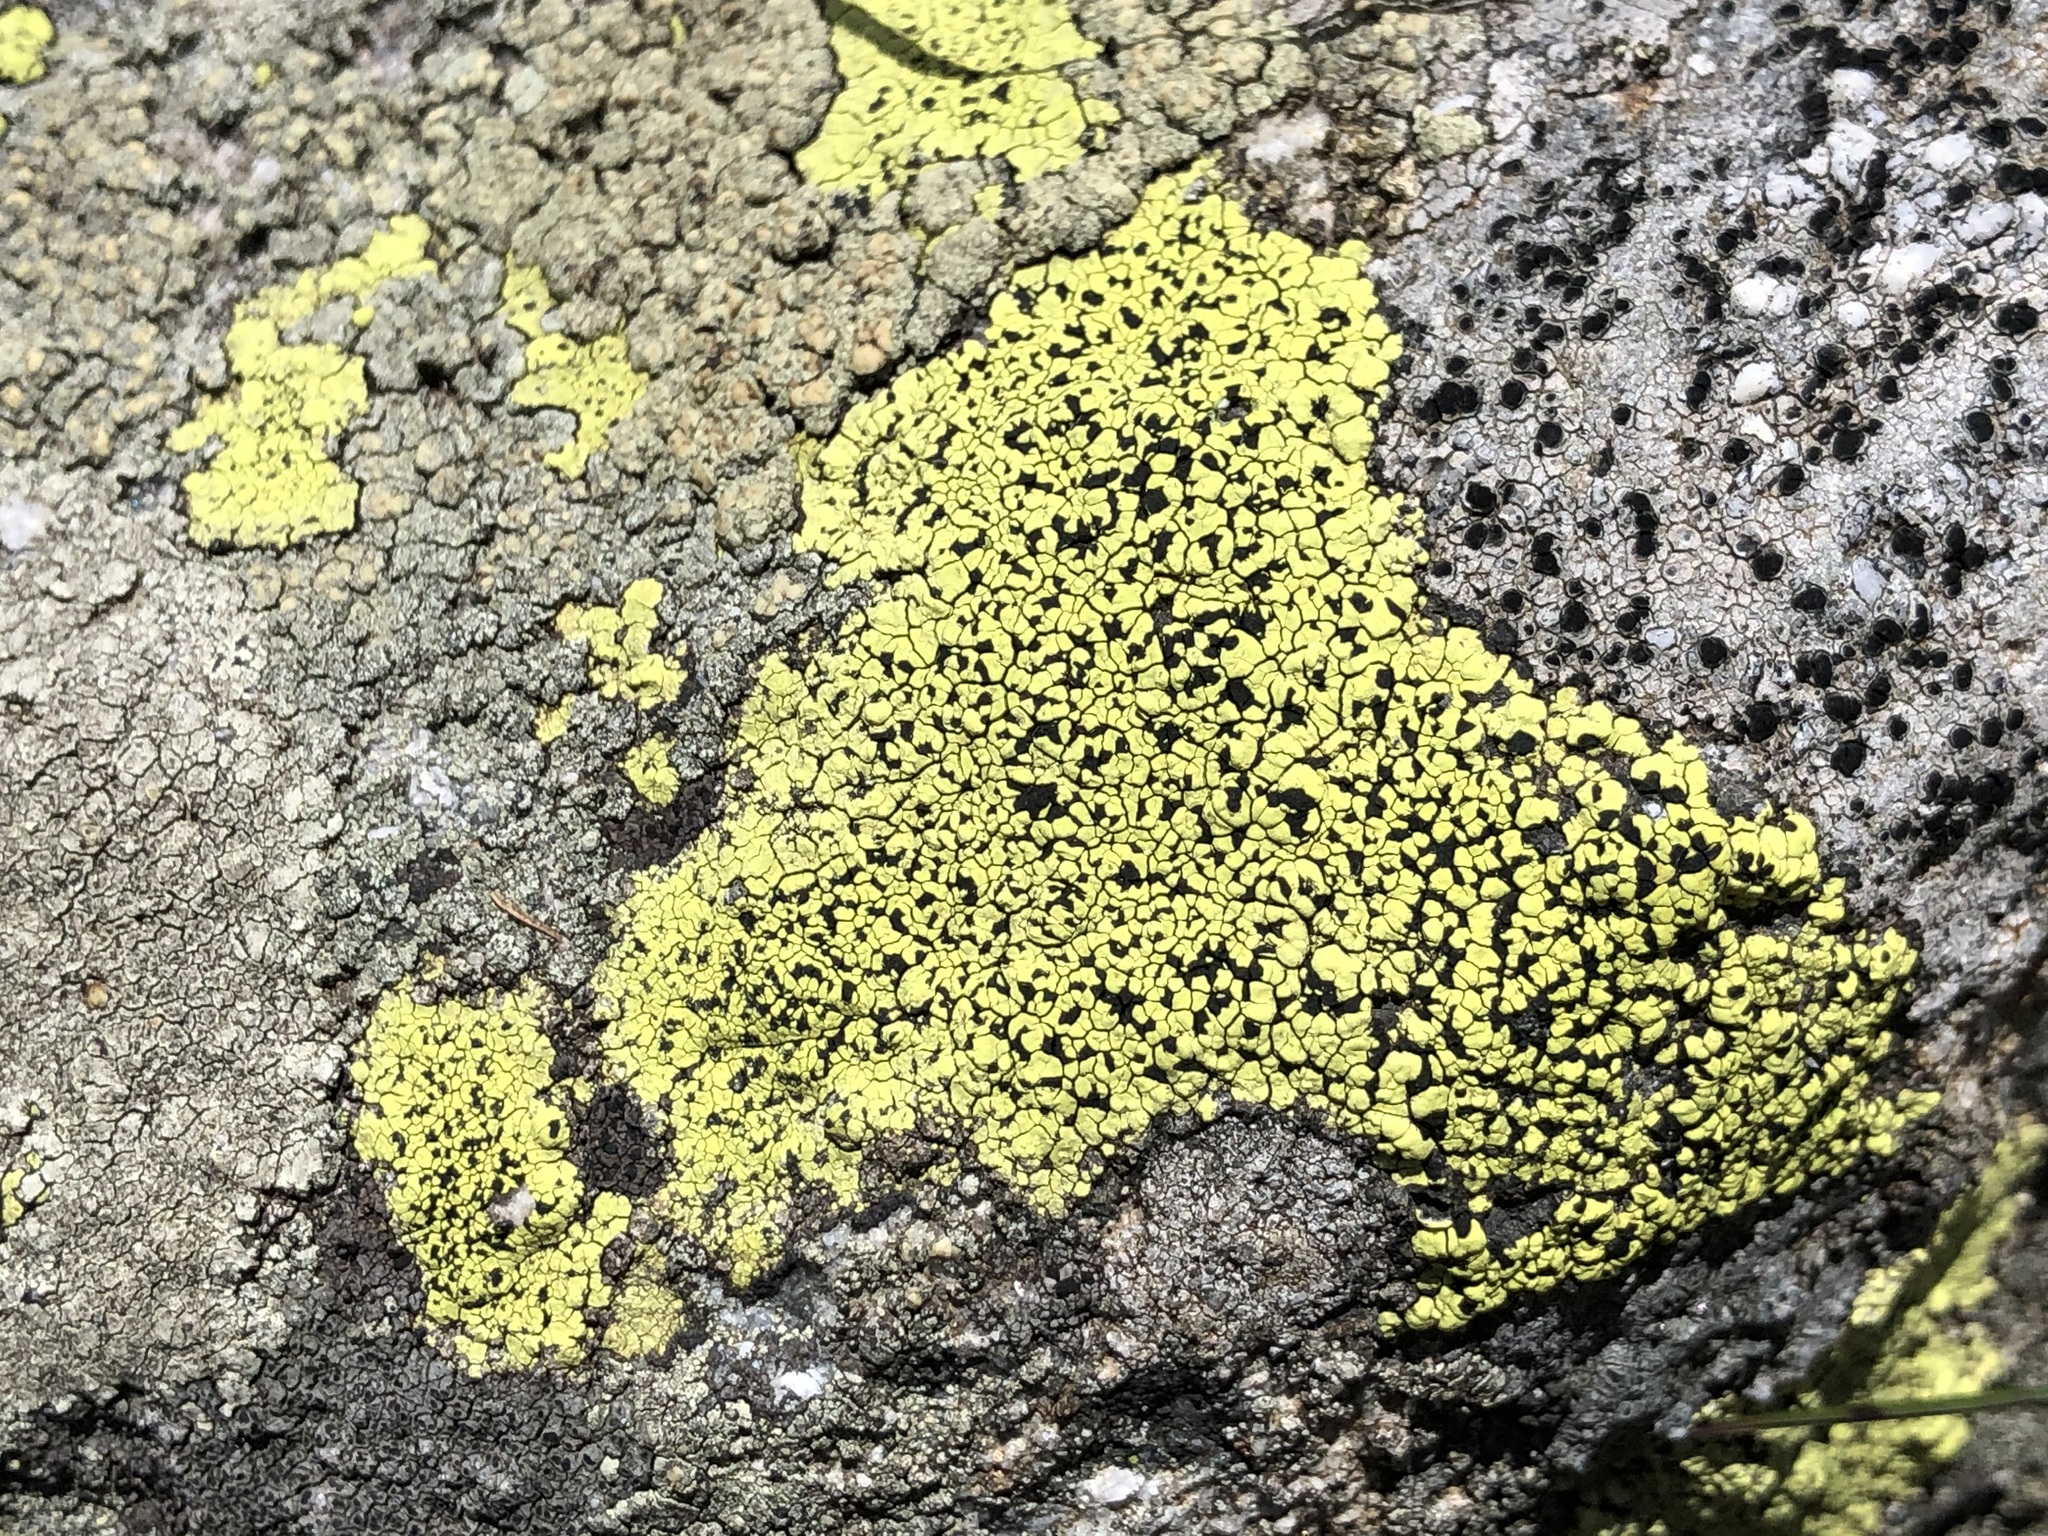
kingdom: Fungi
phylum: Ascomycota
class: Lecanoromycetes
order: Rhizocarpales
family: Rhizocarpaceae
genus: Rhizocarpon
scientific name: Rhizocarpon geographicum
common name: Yellow map lichen
